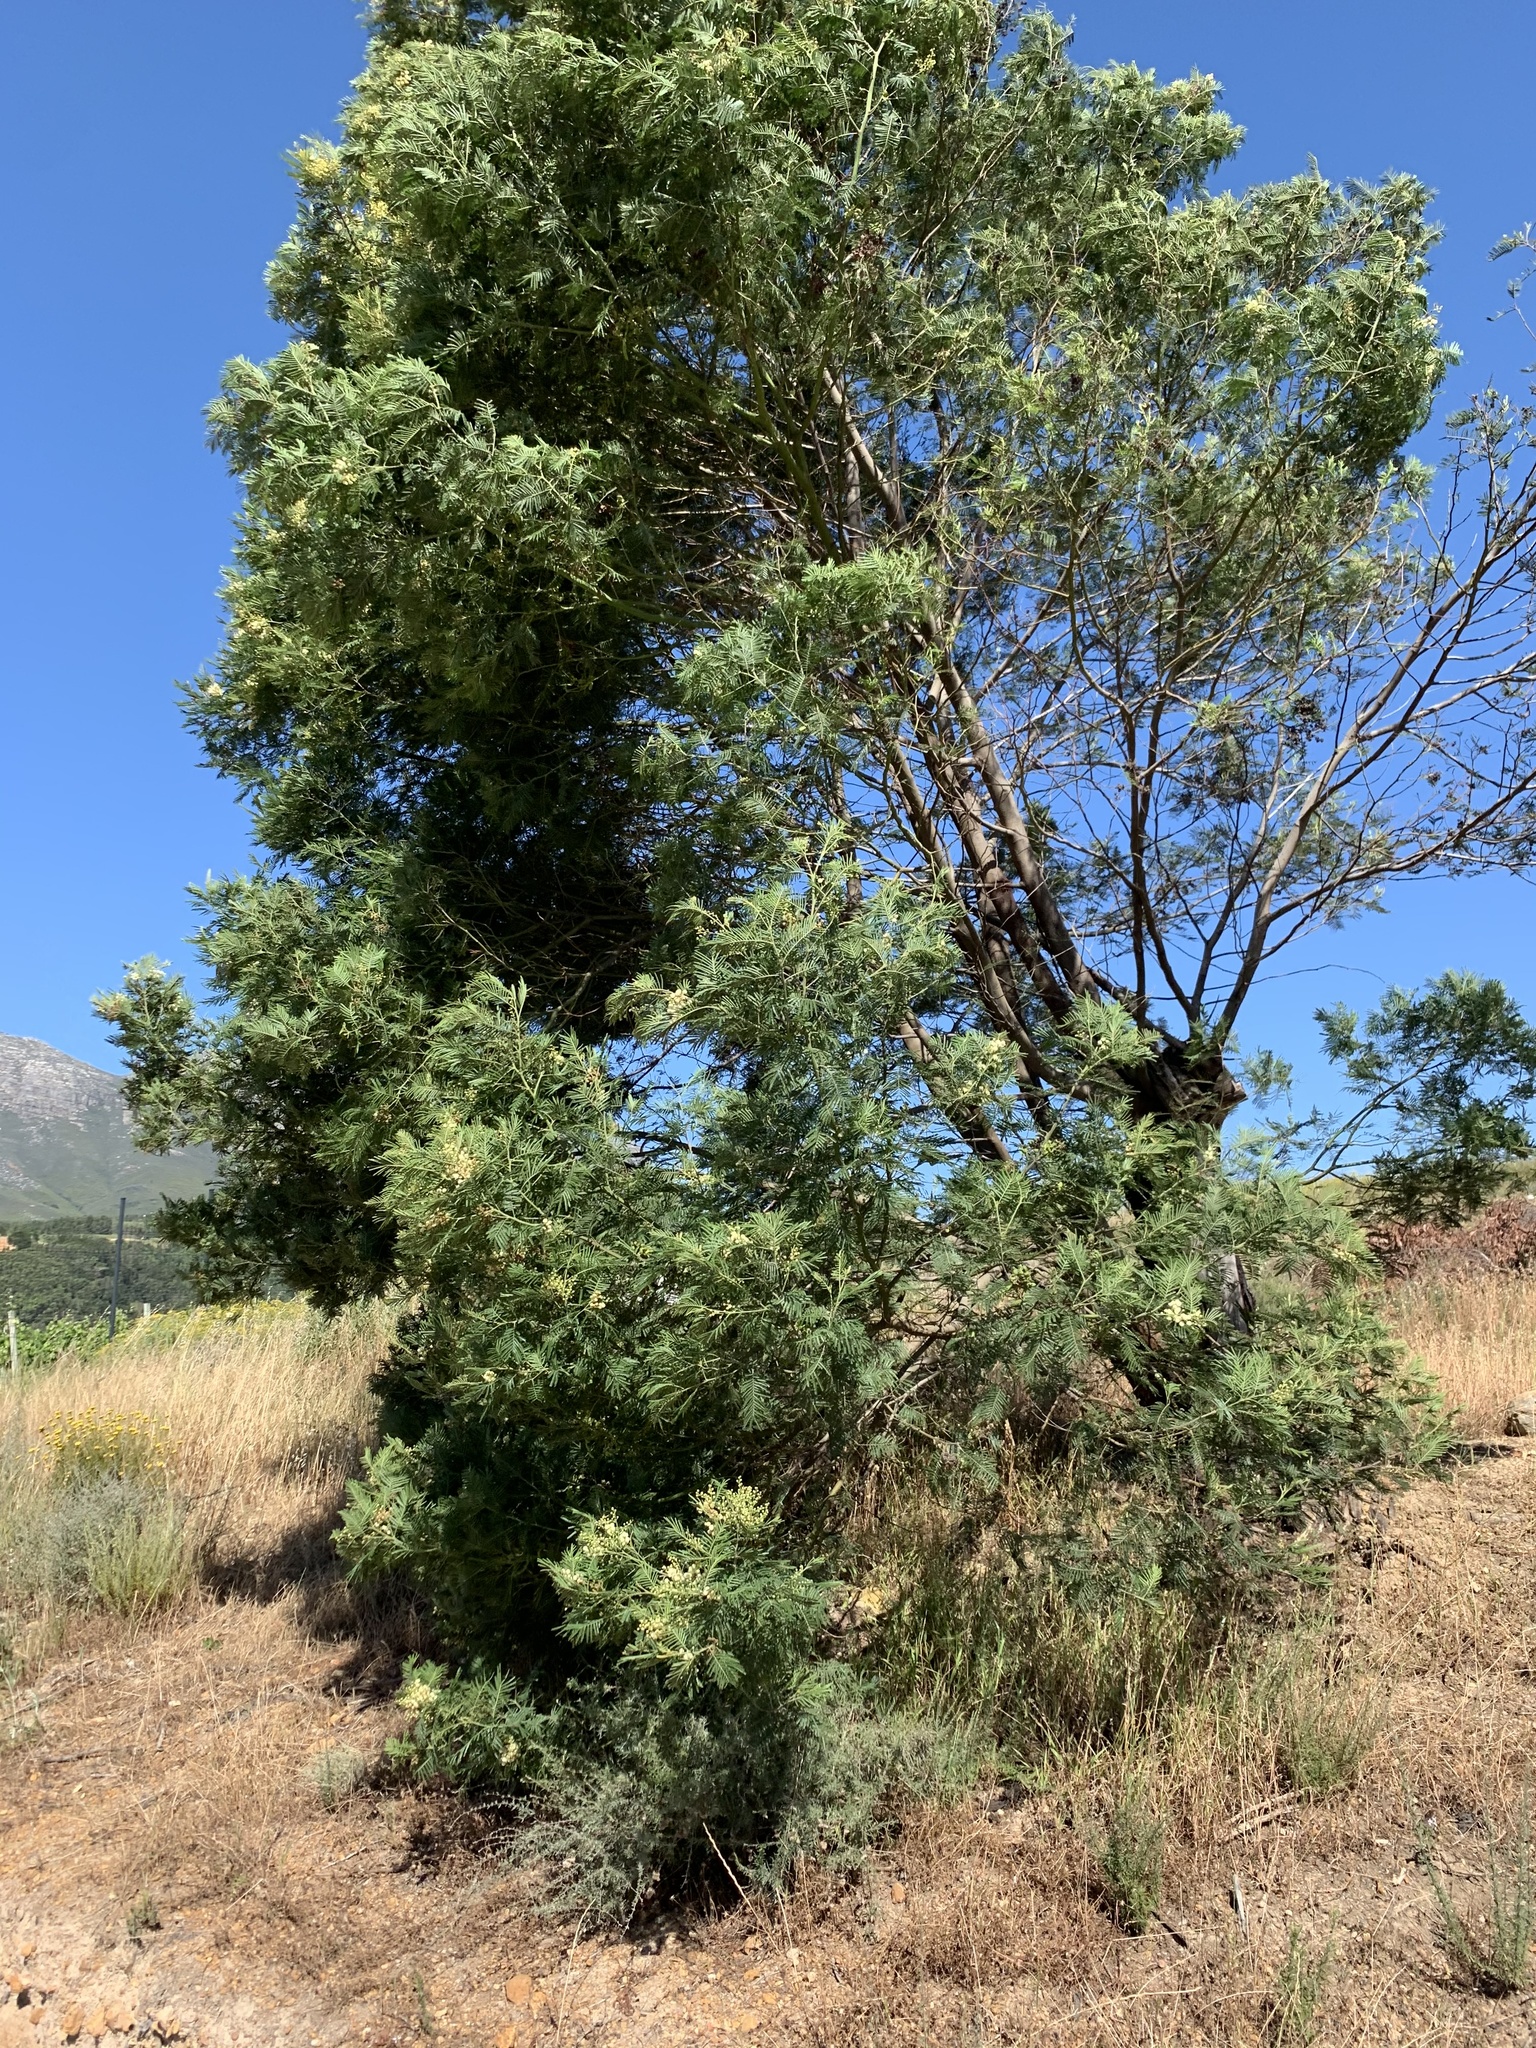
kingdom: Plantae
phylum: Tracheophyta
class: Magnoliopsida
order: Fabales
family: Fabaceae
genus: Acacia
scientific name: Acacia mearnsii
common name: Black wattle
